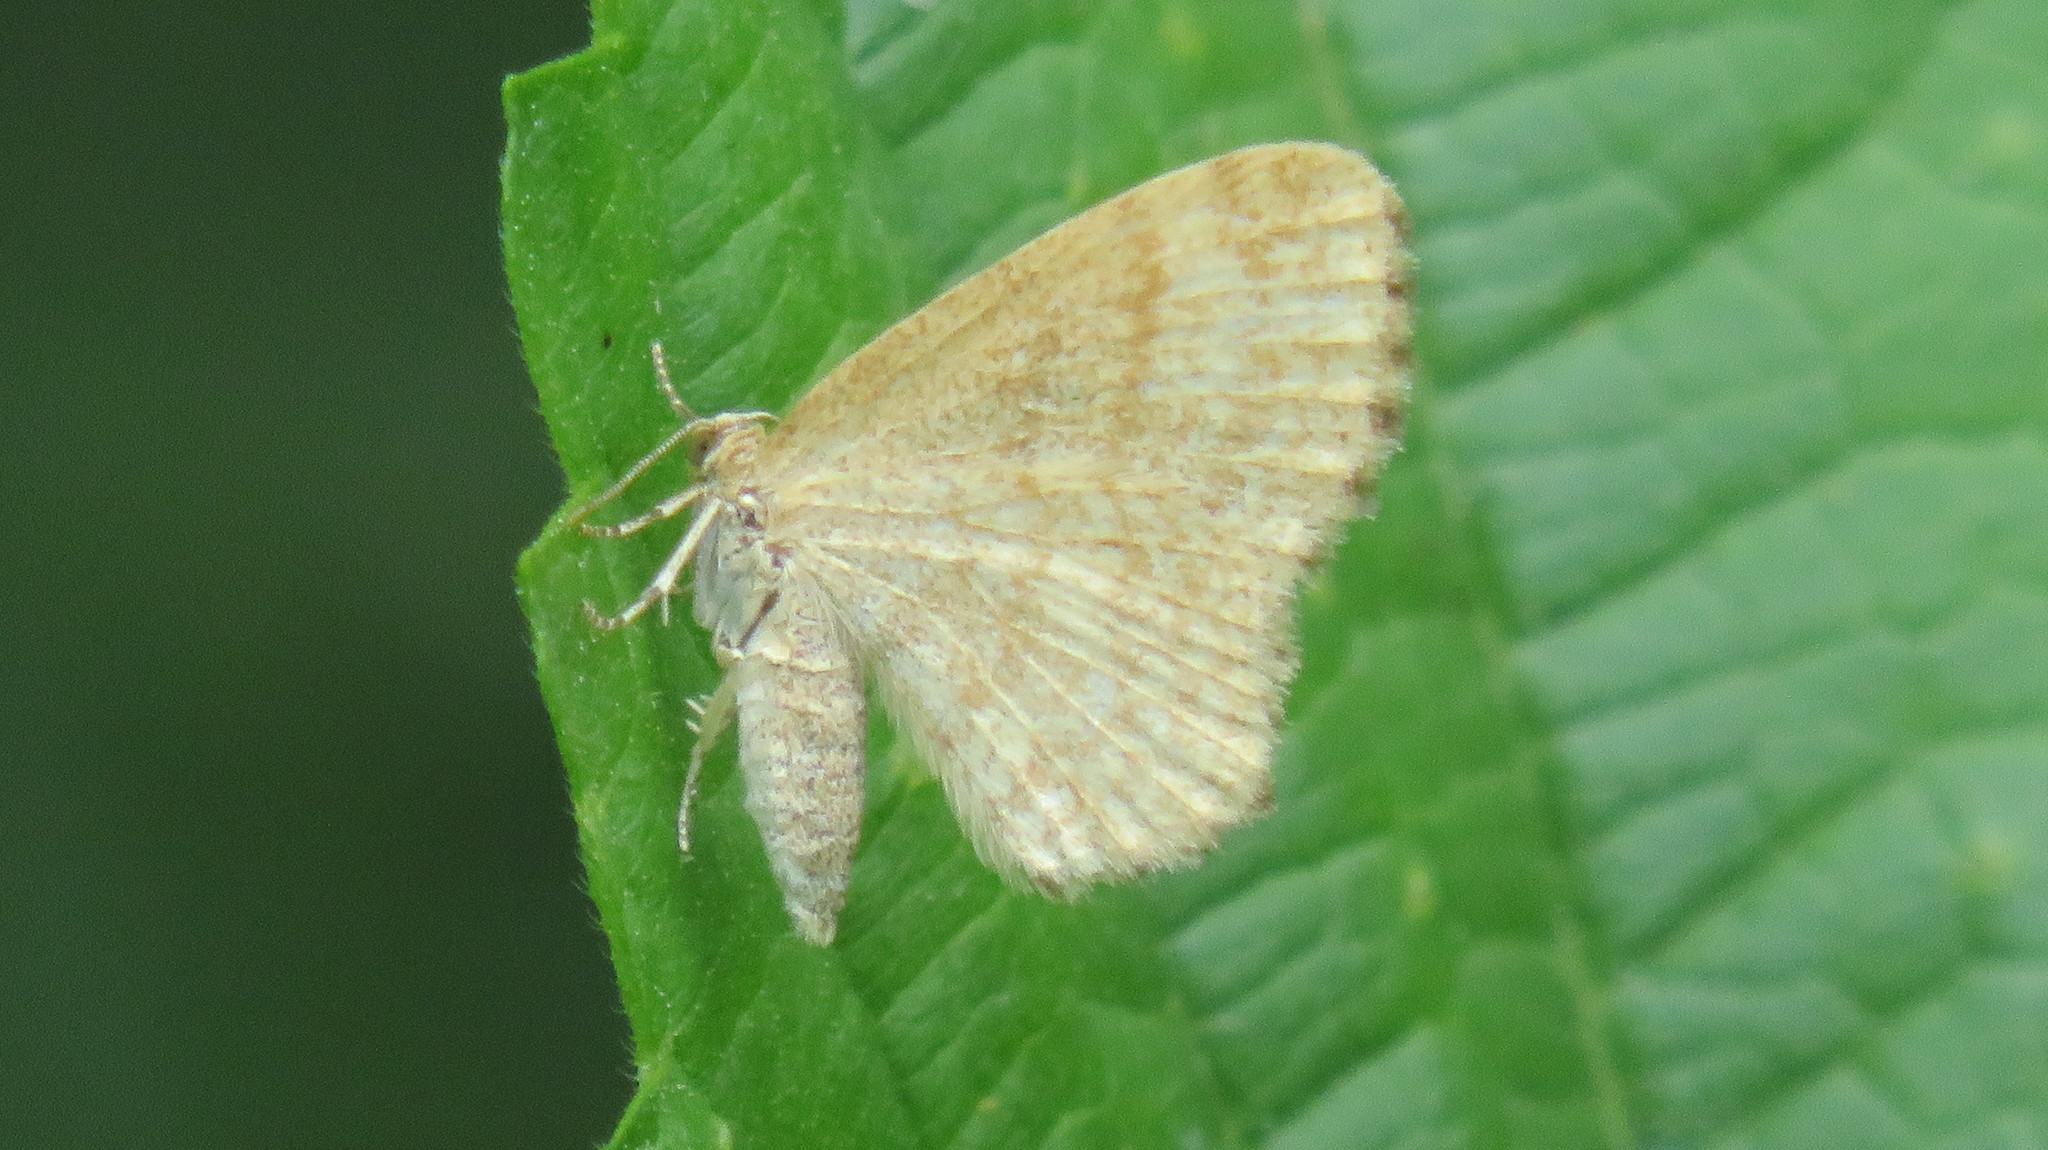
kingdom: Animalia
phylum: Arthropoda
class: Insecta
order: Lepidoptera
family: Geometridae
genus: Euchoeca
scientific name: Euchoeca nebulata
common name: Dingy shell
